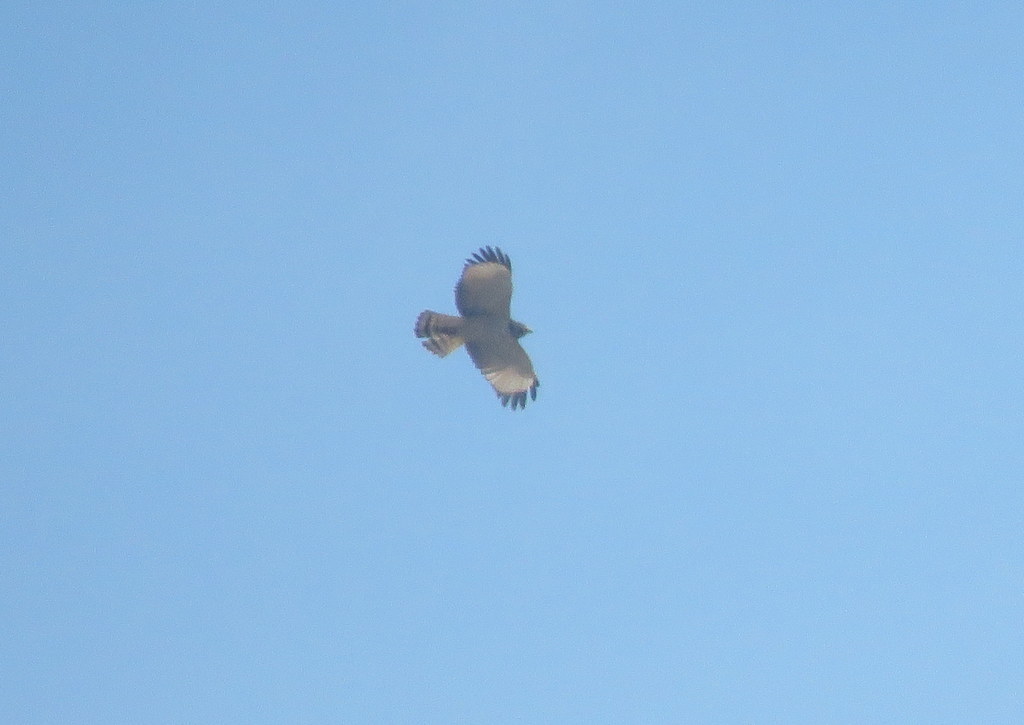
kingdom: Animalia
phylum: Chordata
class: Aves
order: Accipitriformes
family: Accipitridae
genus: Rupornis
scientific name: Rupornis magnirostris
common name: Roadside hawk
